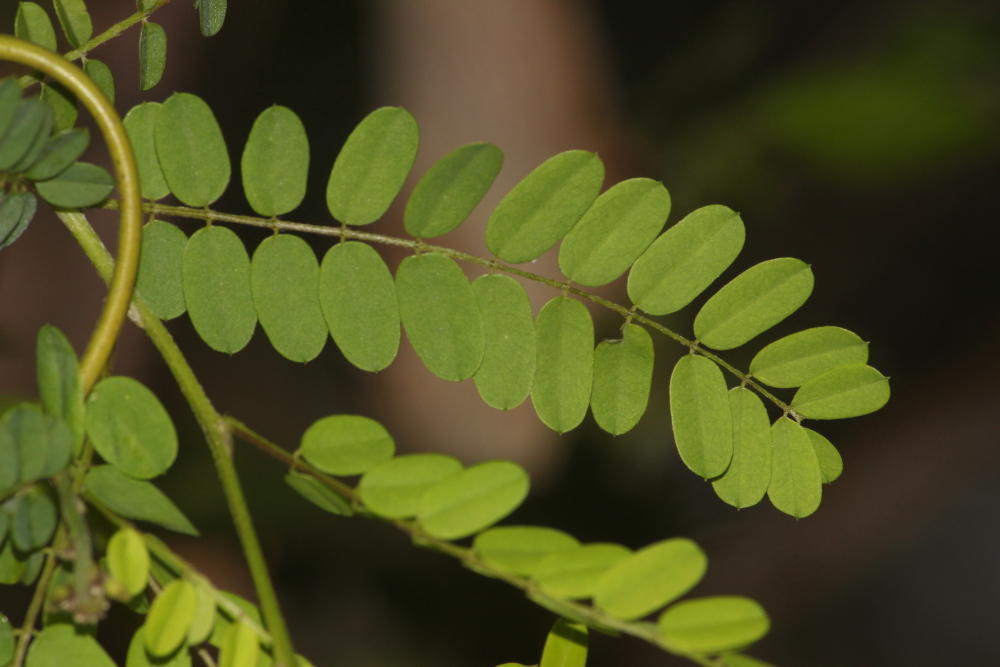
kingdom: Plantae
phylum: Tracheophyta
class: Magnoliopsida
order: Fabales
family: Fabaceae
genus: Abrus
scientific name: Abrus precatorius
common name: Rosarypea
